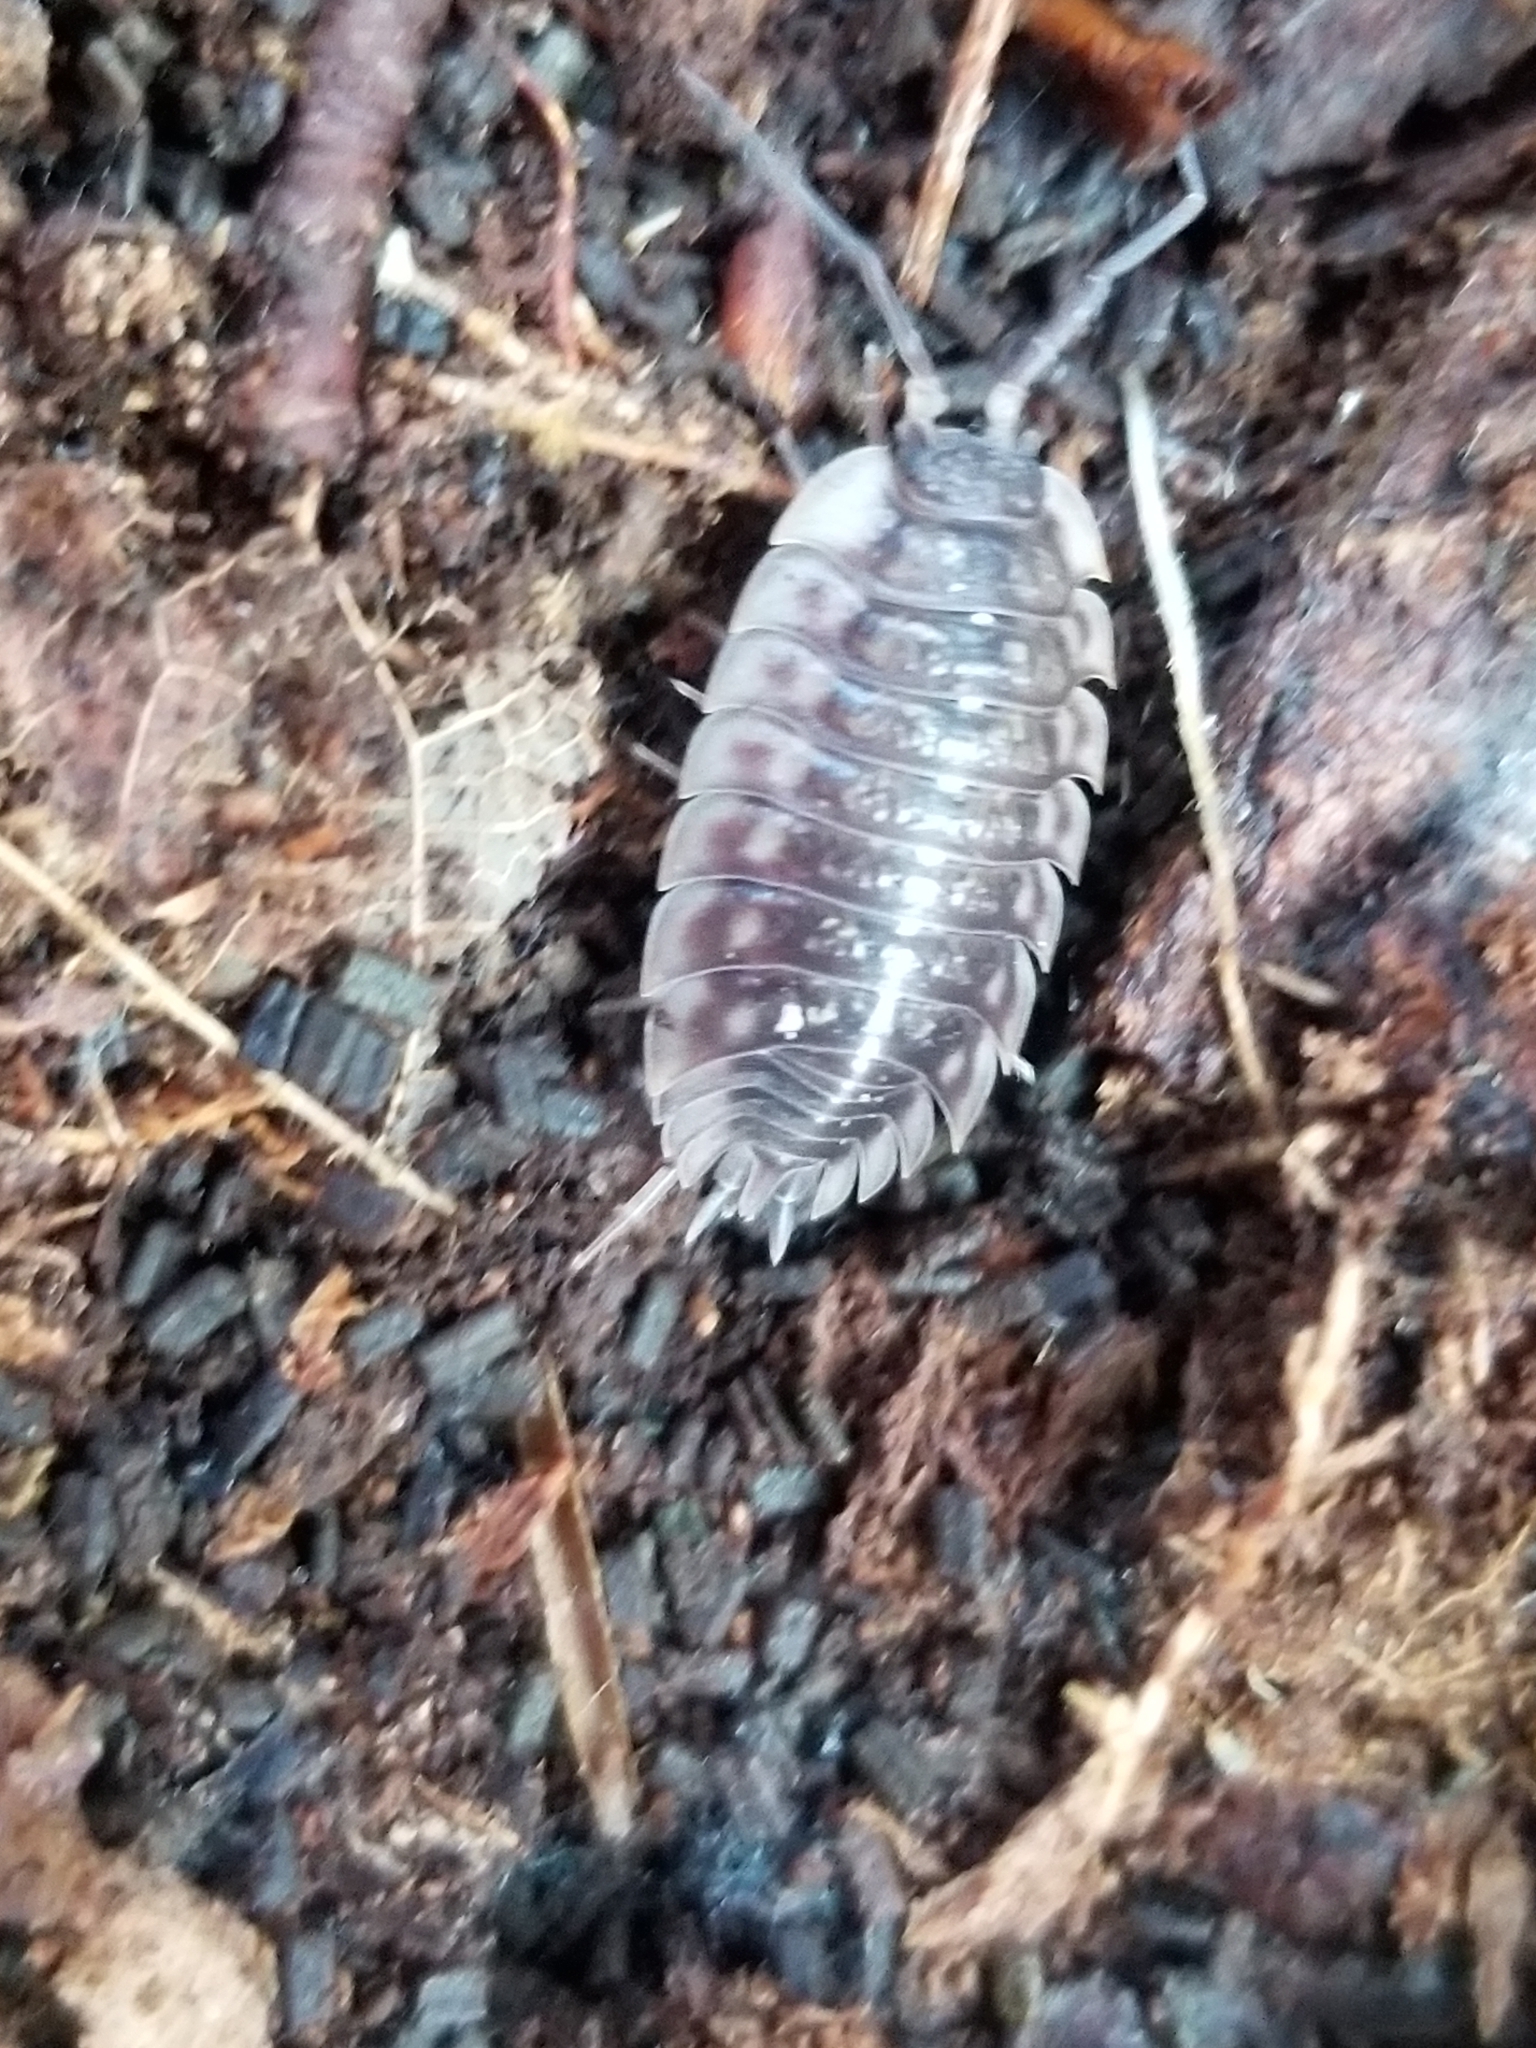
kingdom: Animalia
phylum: Arthropoda
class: Malacostraca
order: Isopoda
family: Oniscidae
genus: Oniscus
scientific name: Oniscus asellus
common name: Common shiny woodlouse
